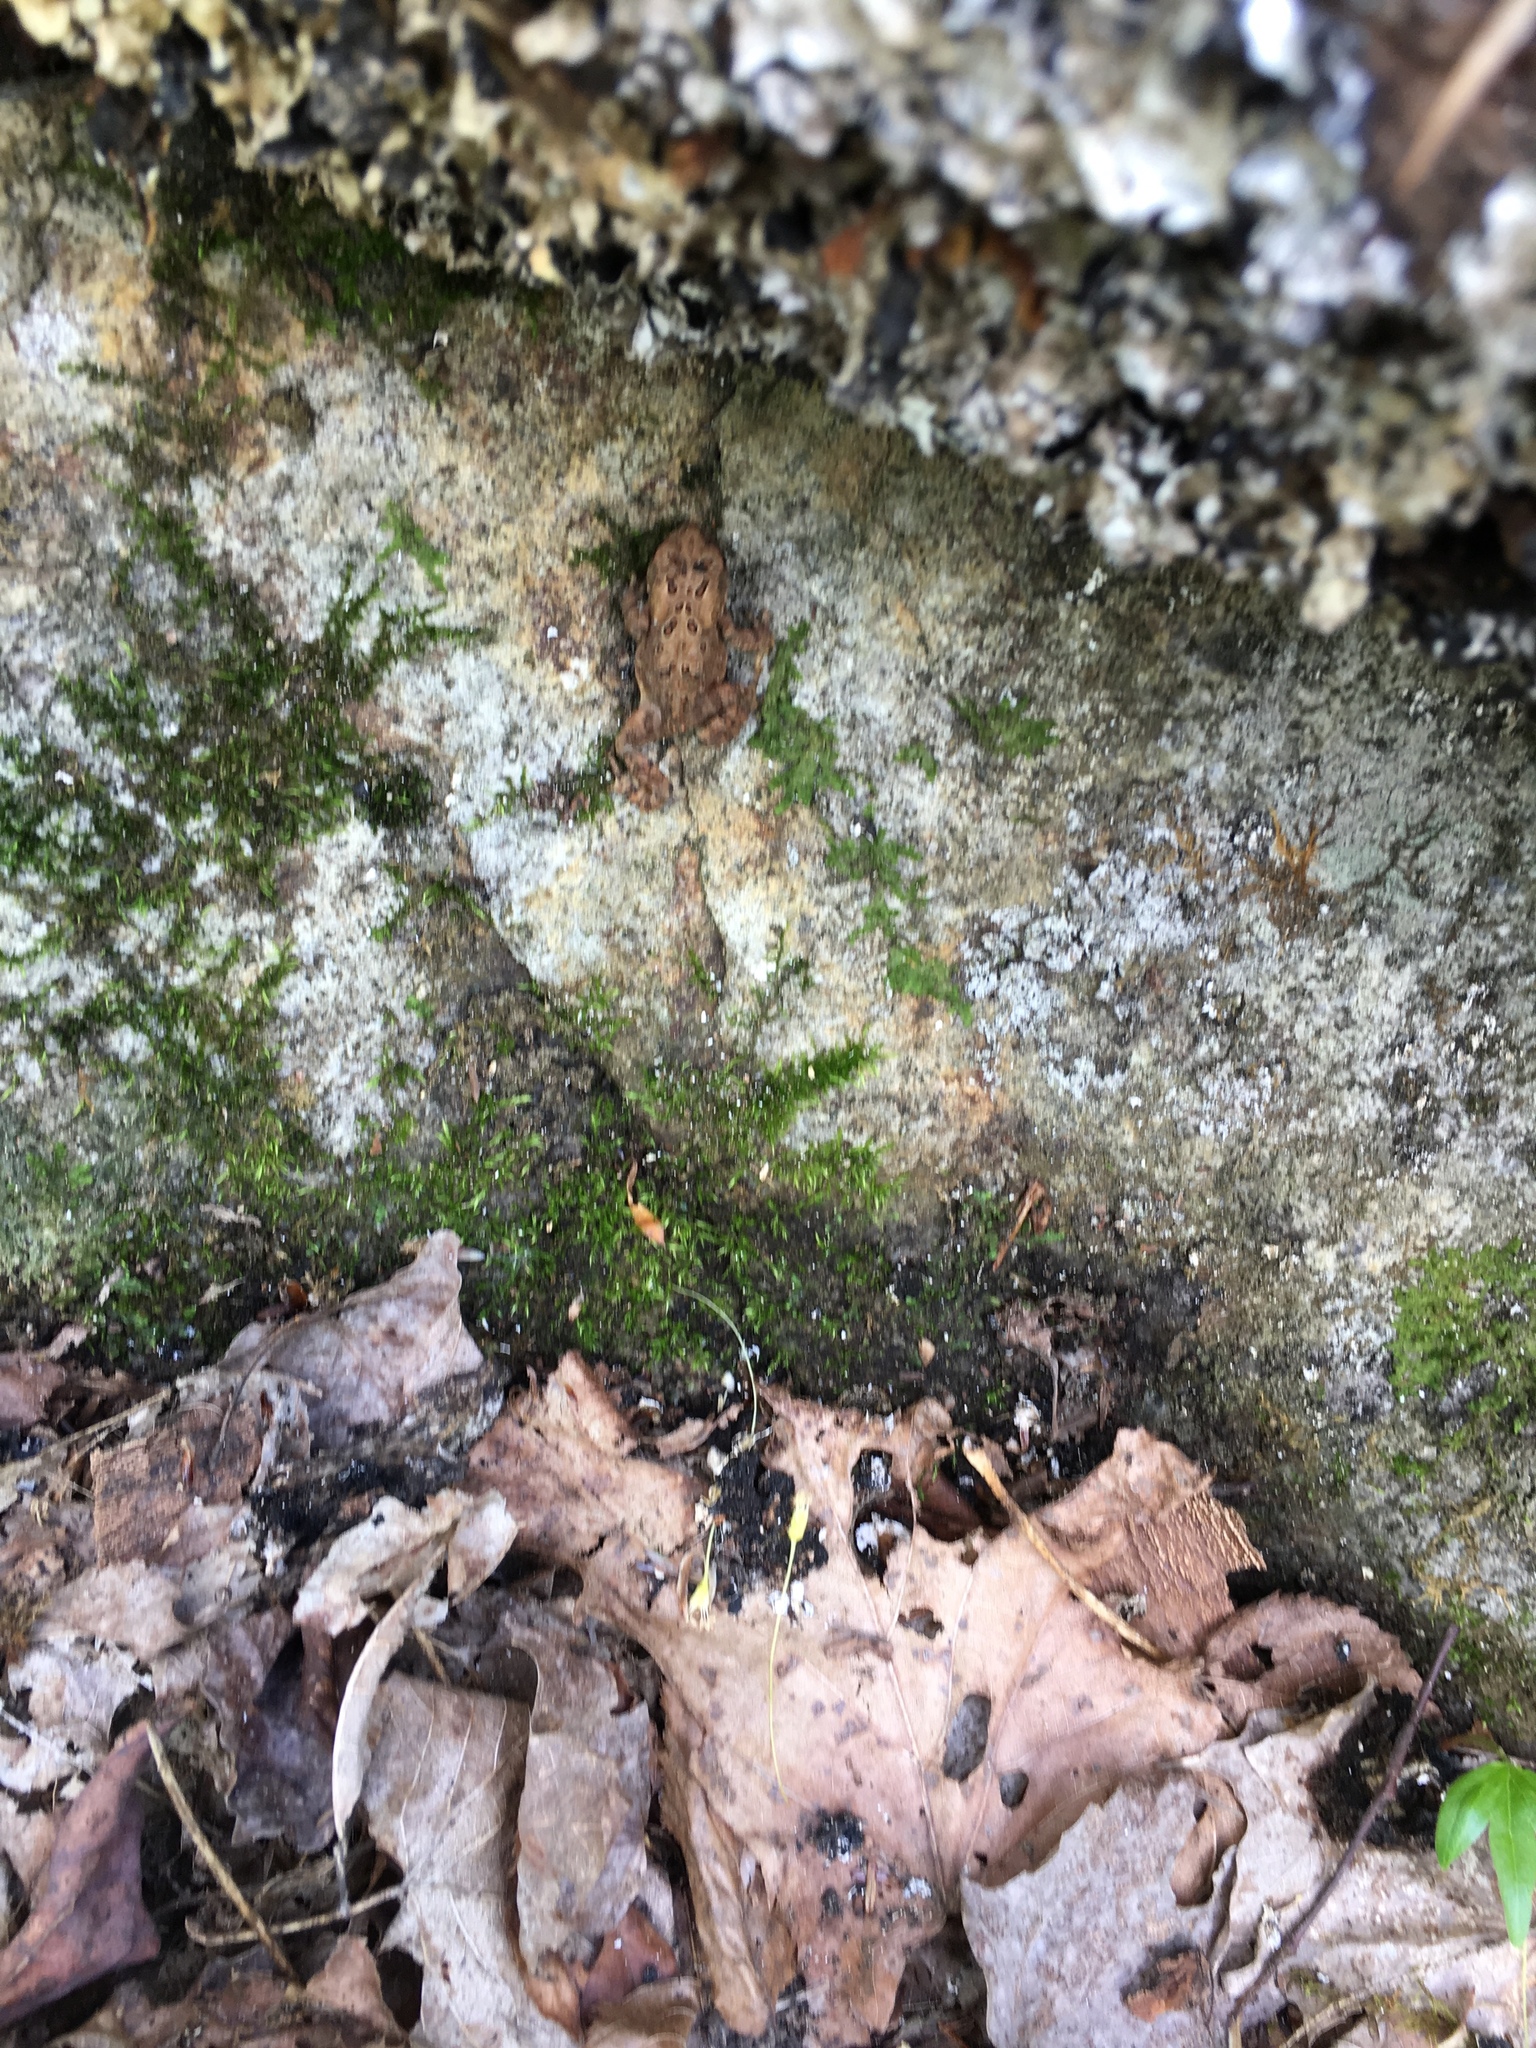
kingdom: Animalia
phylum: Chordata
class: Amphibia
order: Anura
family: Bufonidae
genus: Anaxyrus
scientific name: Anaxyrus americanus
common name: American toad
